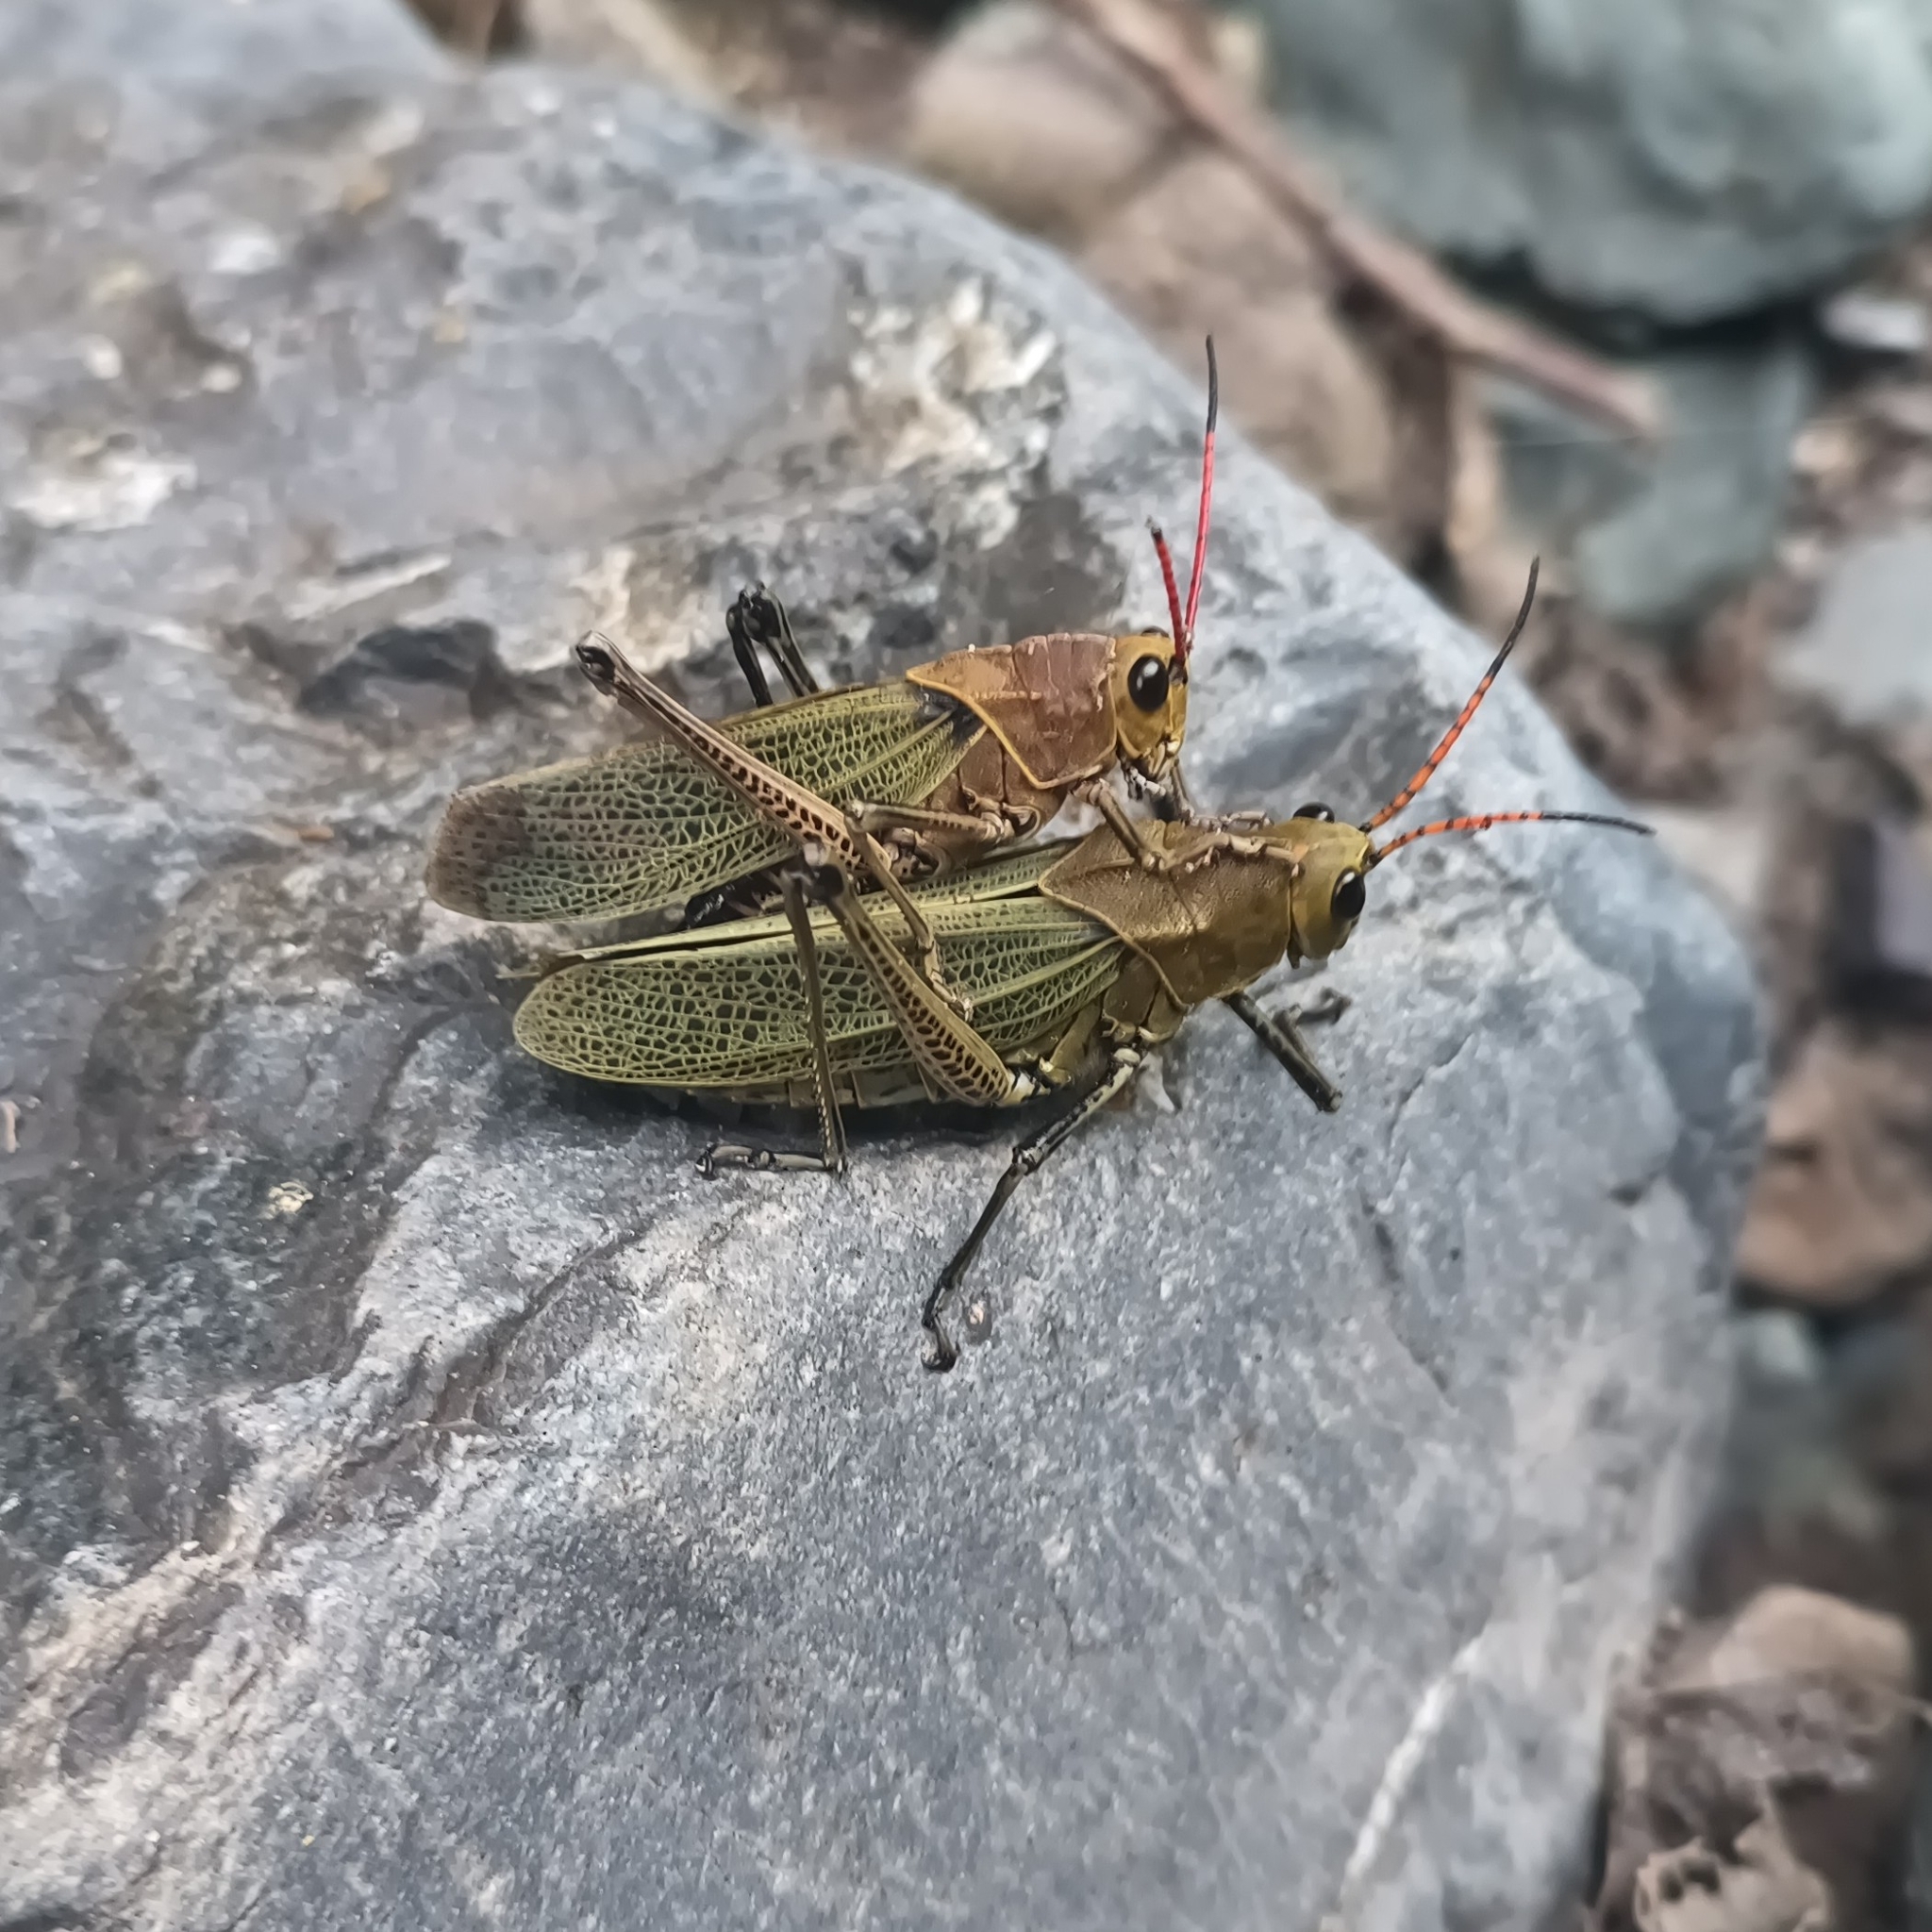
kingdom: Animalia
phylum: Arthropoda
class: Insecta
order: Orthoptera
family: Romaleidae
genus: Romalea
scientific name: Romalea
